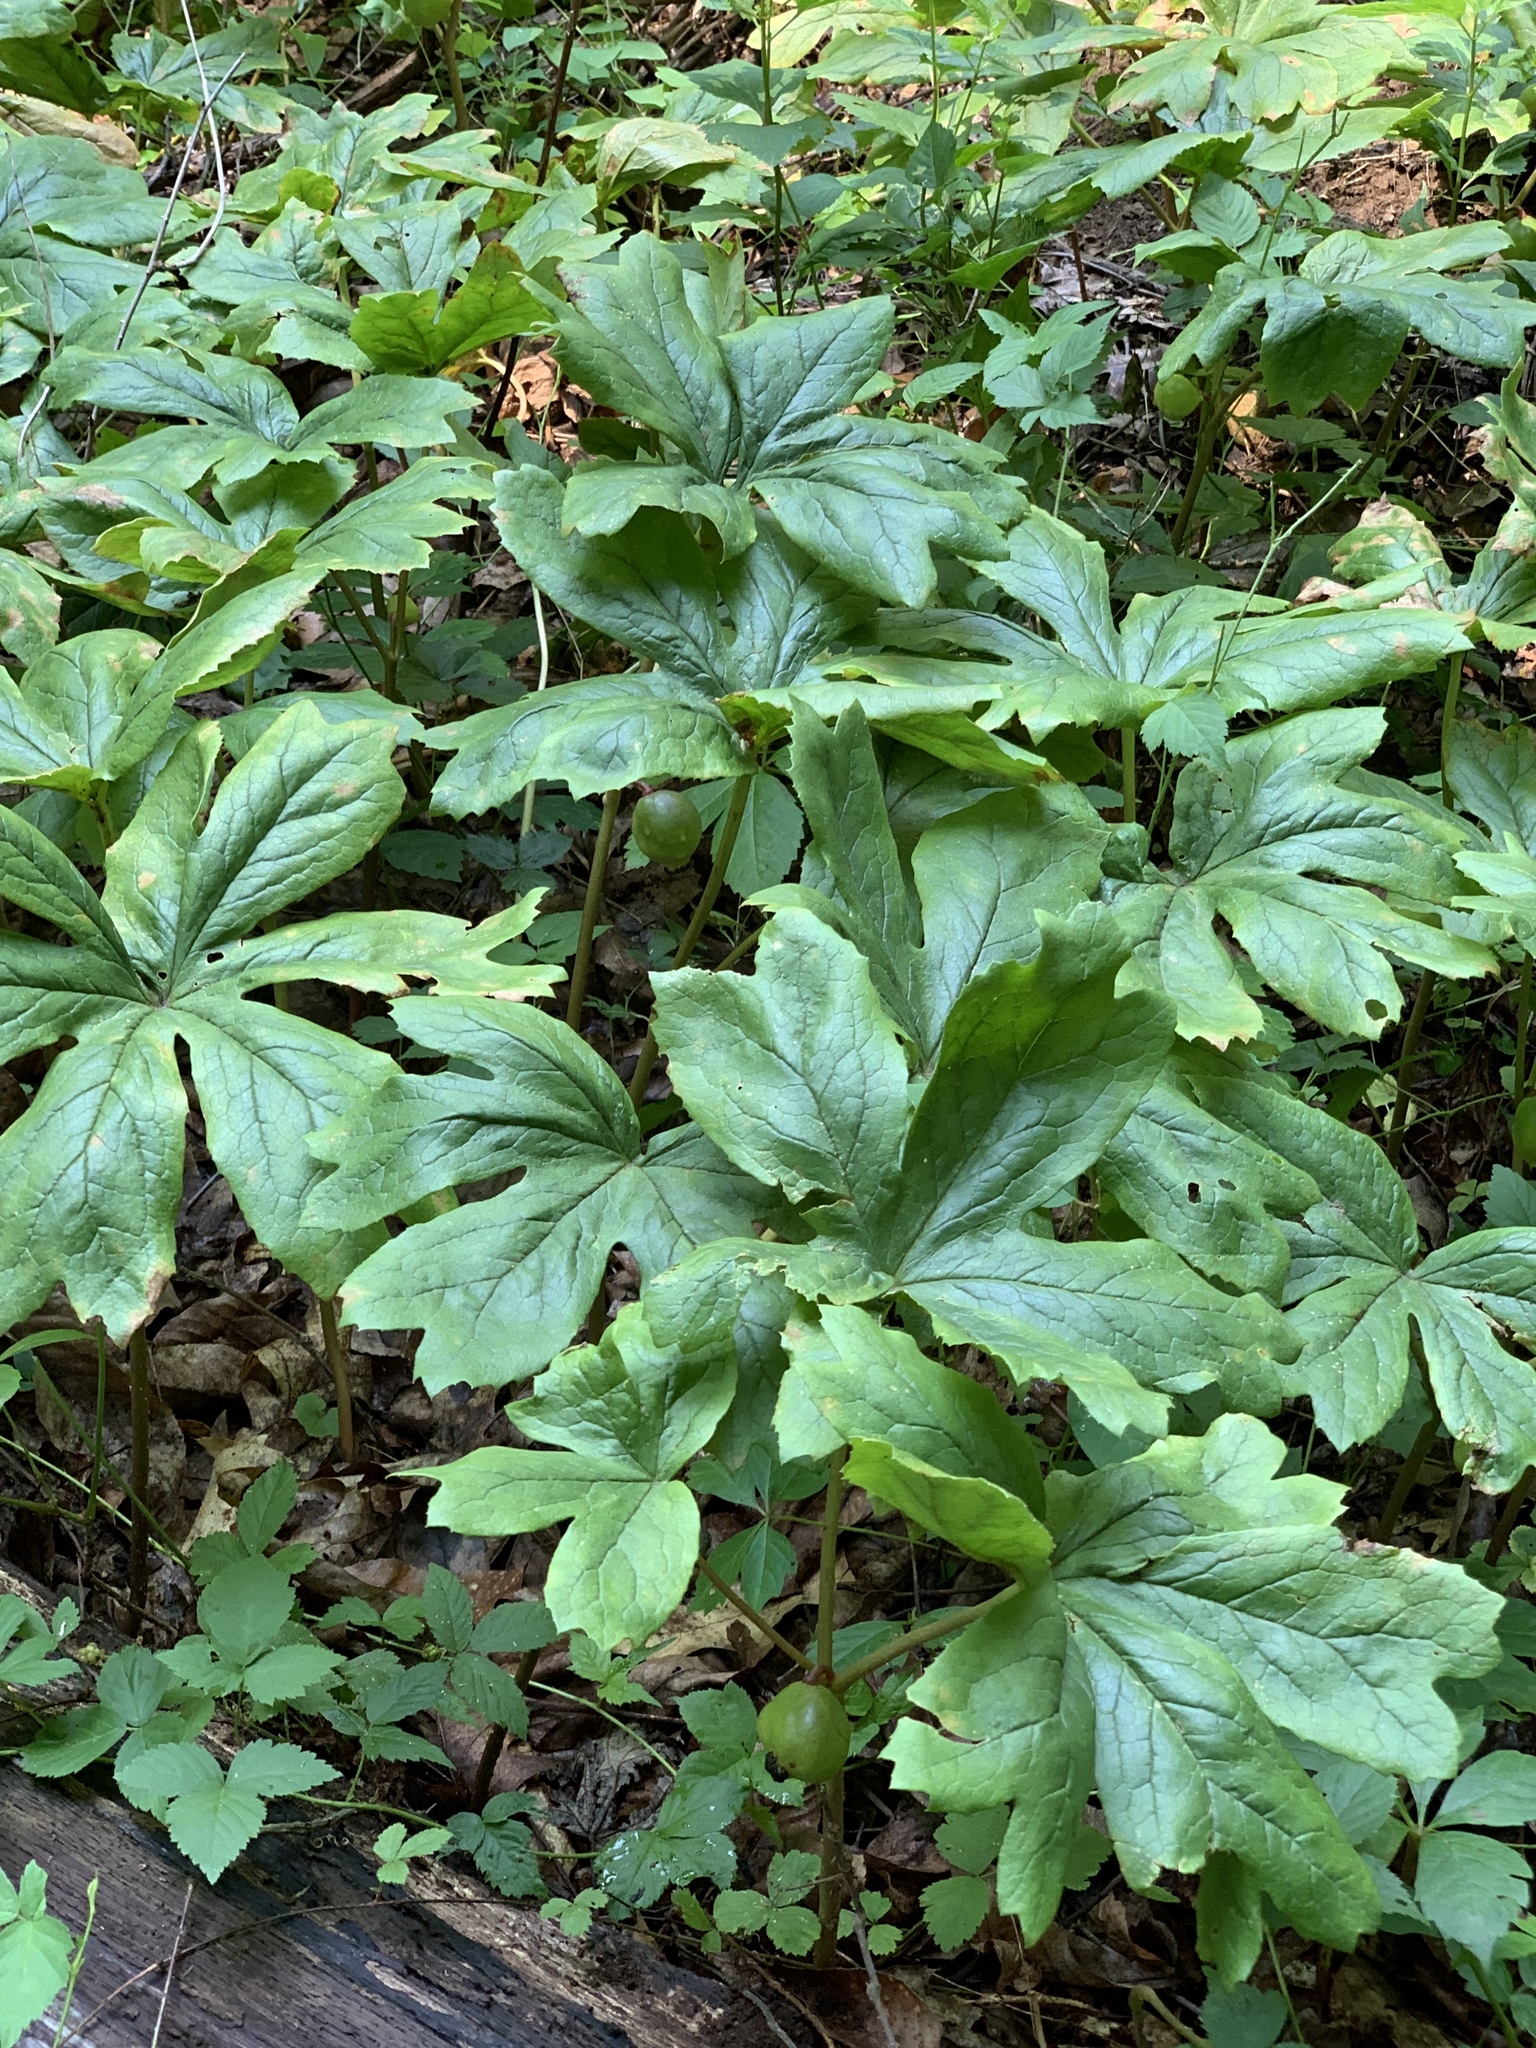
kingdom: Plantae
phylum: Tracheophyta
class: Magnoliopsida
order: Ranunculales
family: Berberidaceae
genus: Podophyllum
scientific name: Podophyllum peltatum
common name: Wild mandrake
